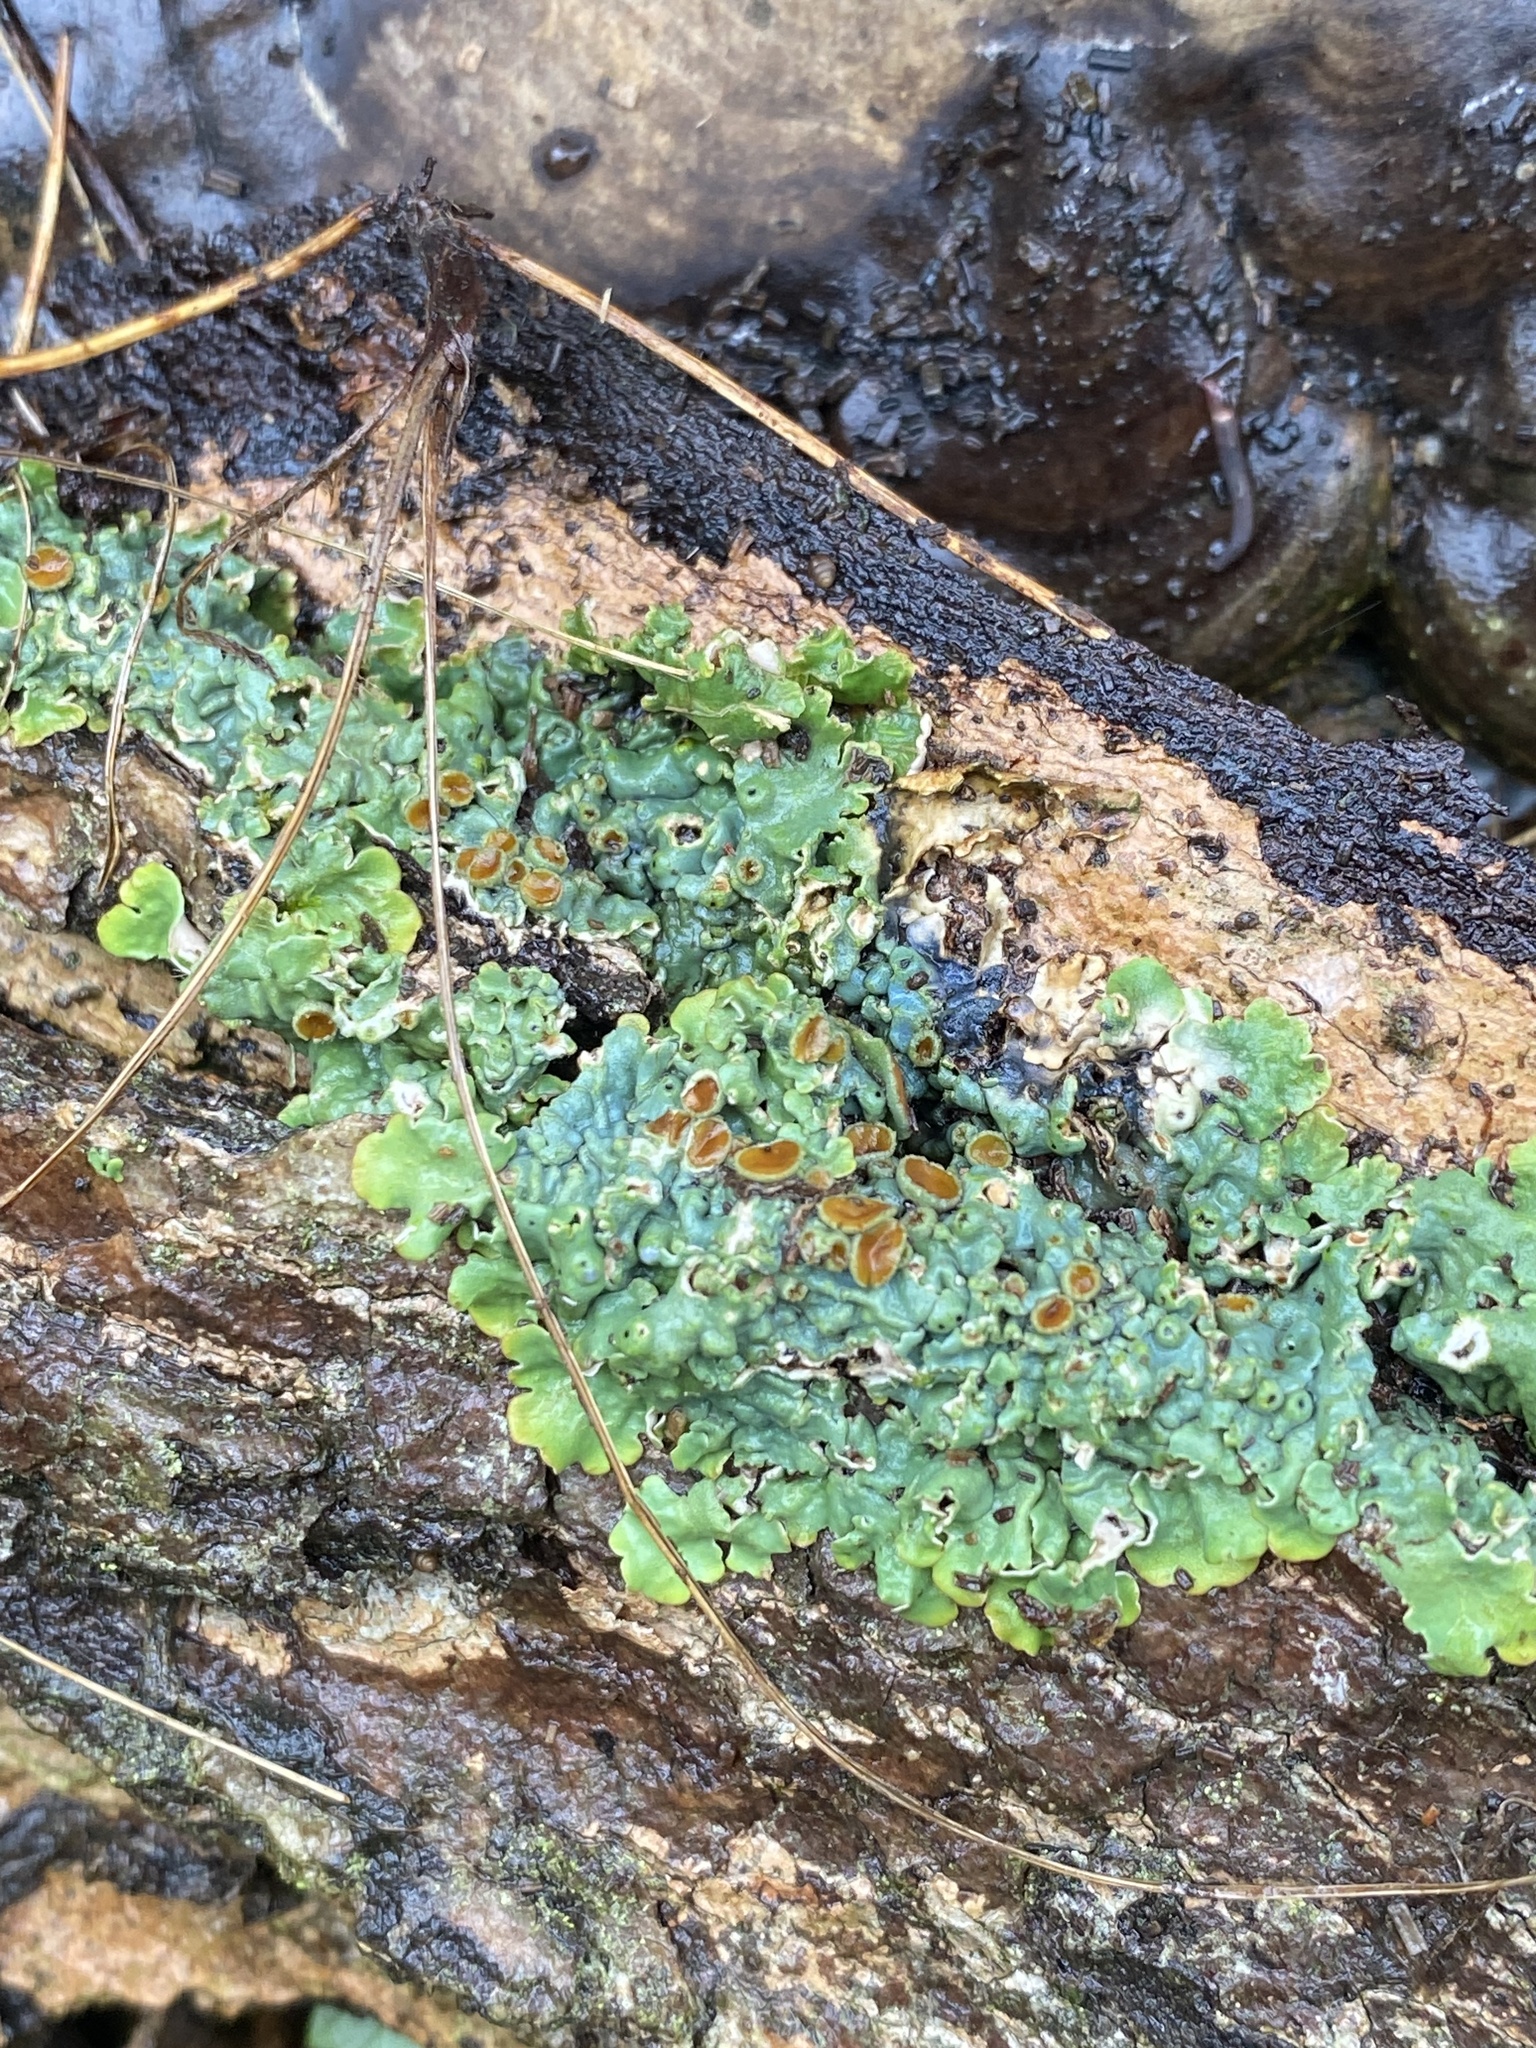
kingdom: Fungi
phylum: Ascomycota
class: Lecanoromycetes
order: Peltigerales
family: Lobariaceae
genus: Ricasolia
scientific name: Ricasolia quercizans
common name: Smooth lungwort
